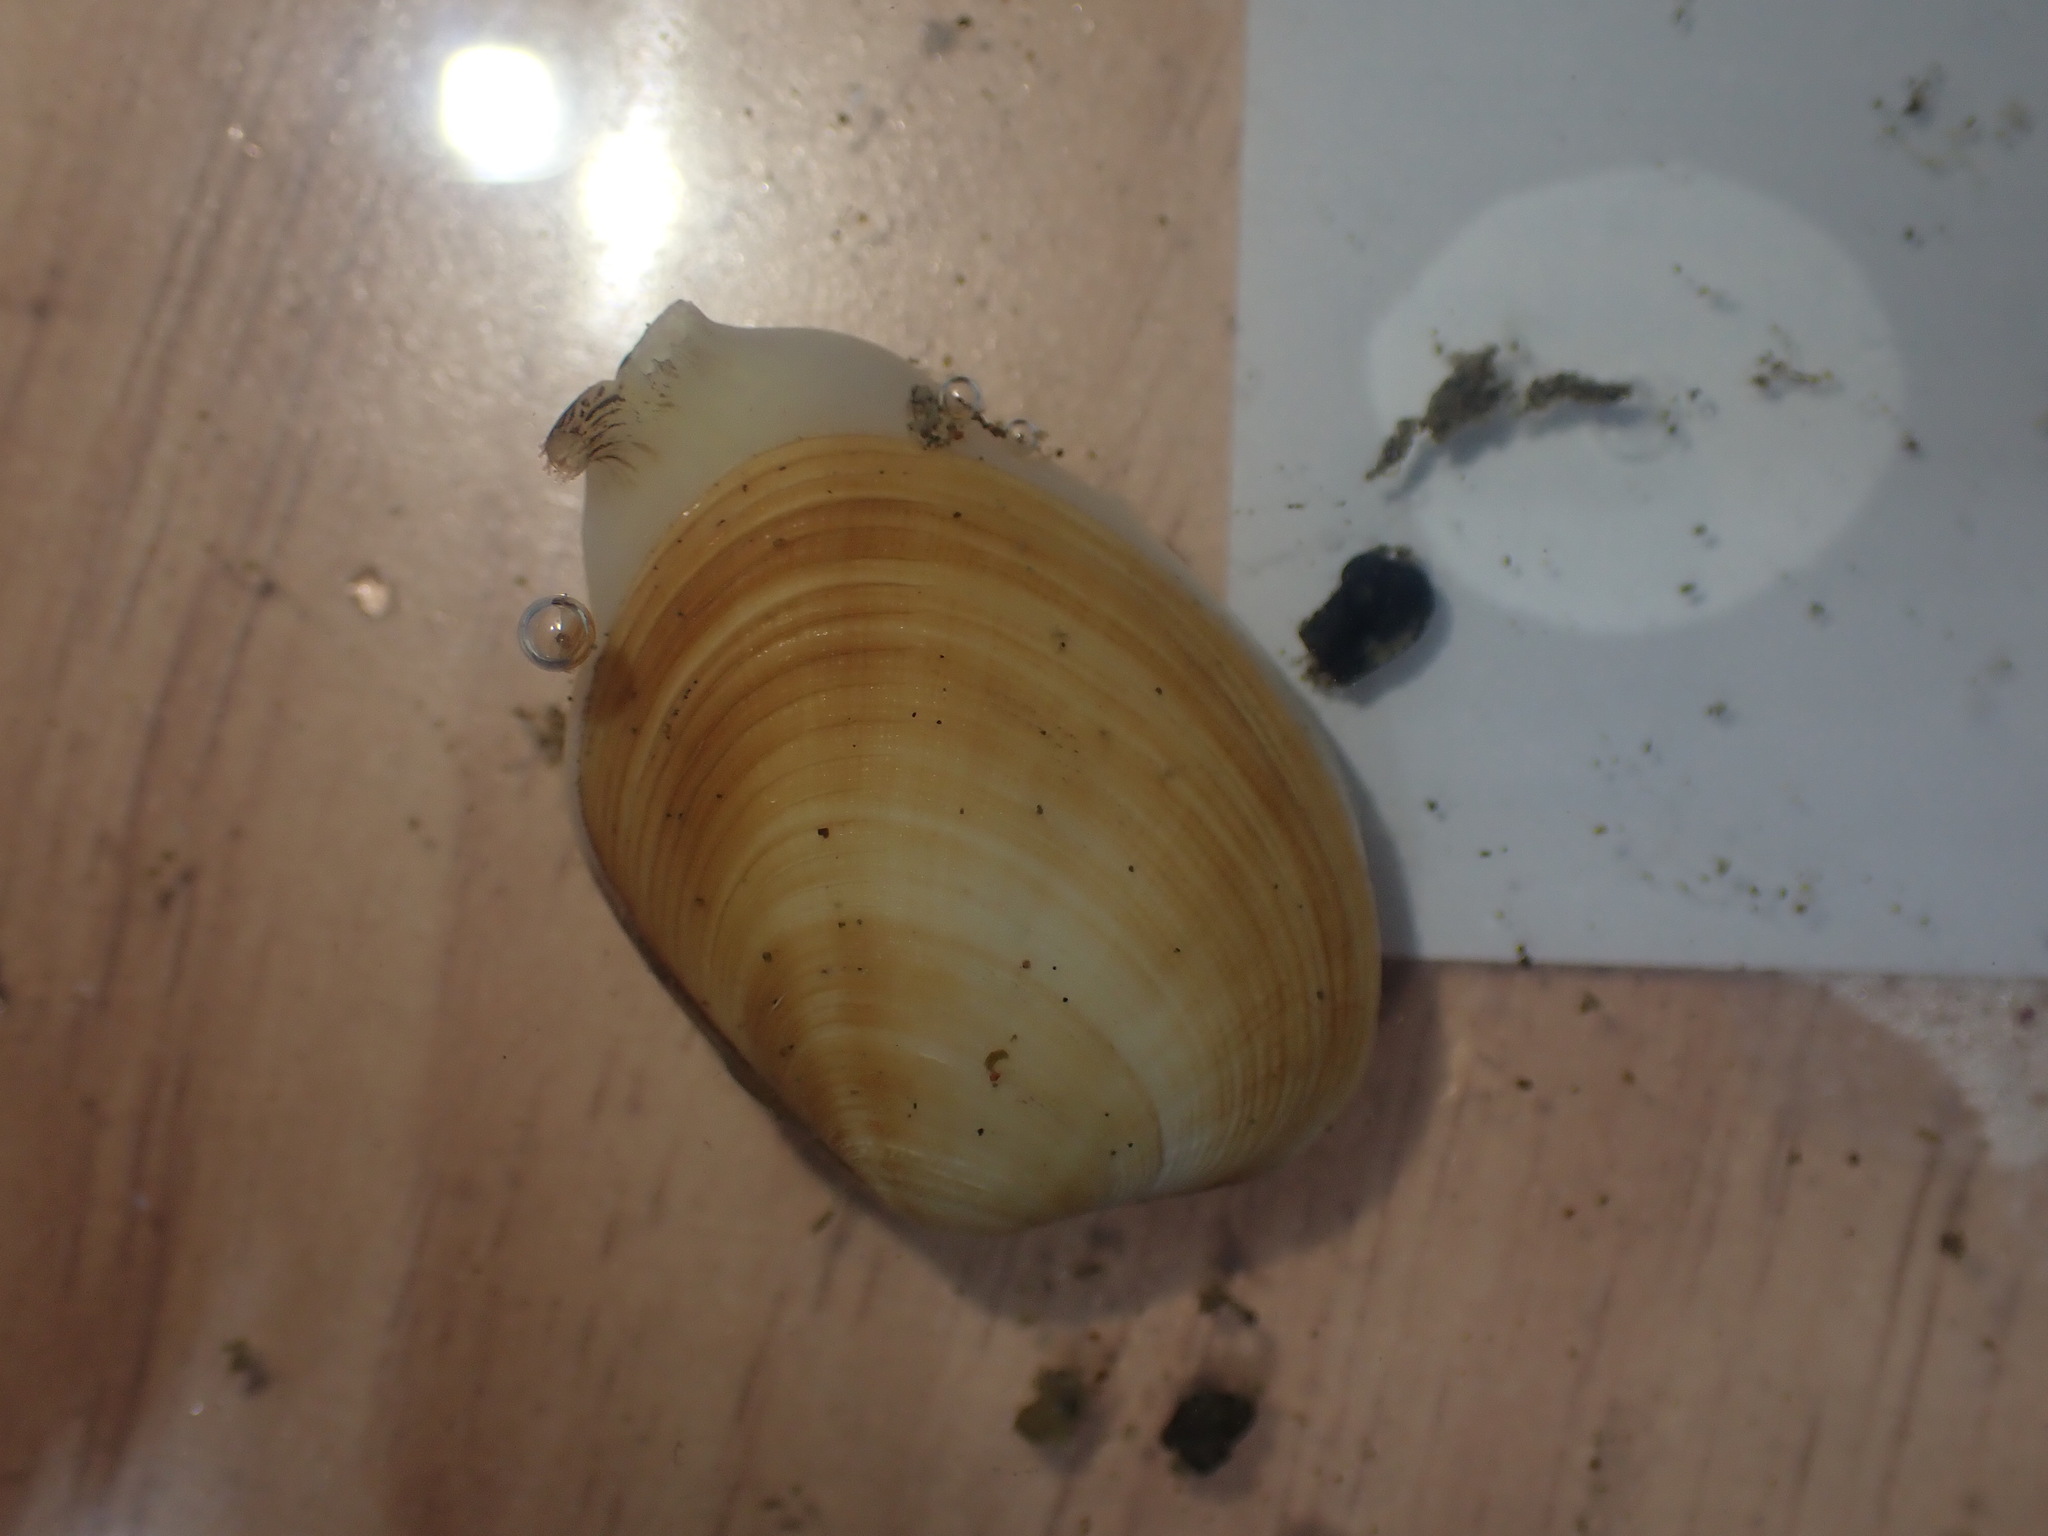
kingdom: Animalia
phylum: Mollusca
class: Bivalvia
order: Venerida
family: Veneridae
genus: Venerupis
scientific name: Venerupis largillierti
